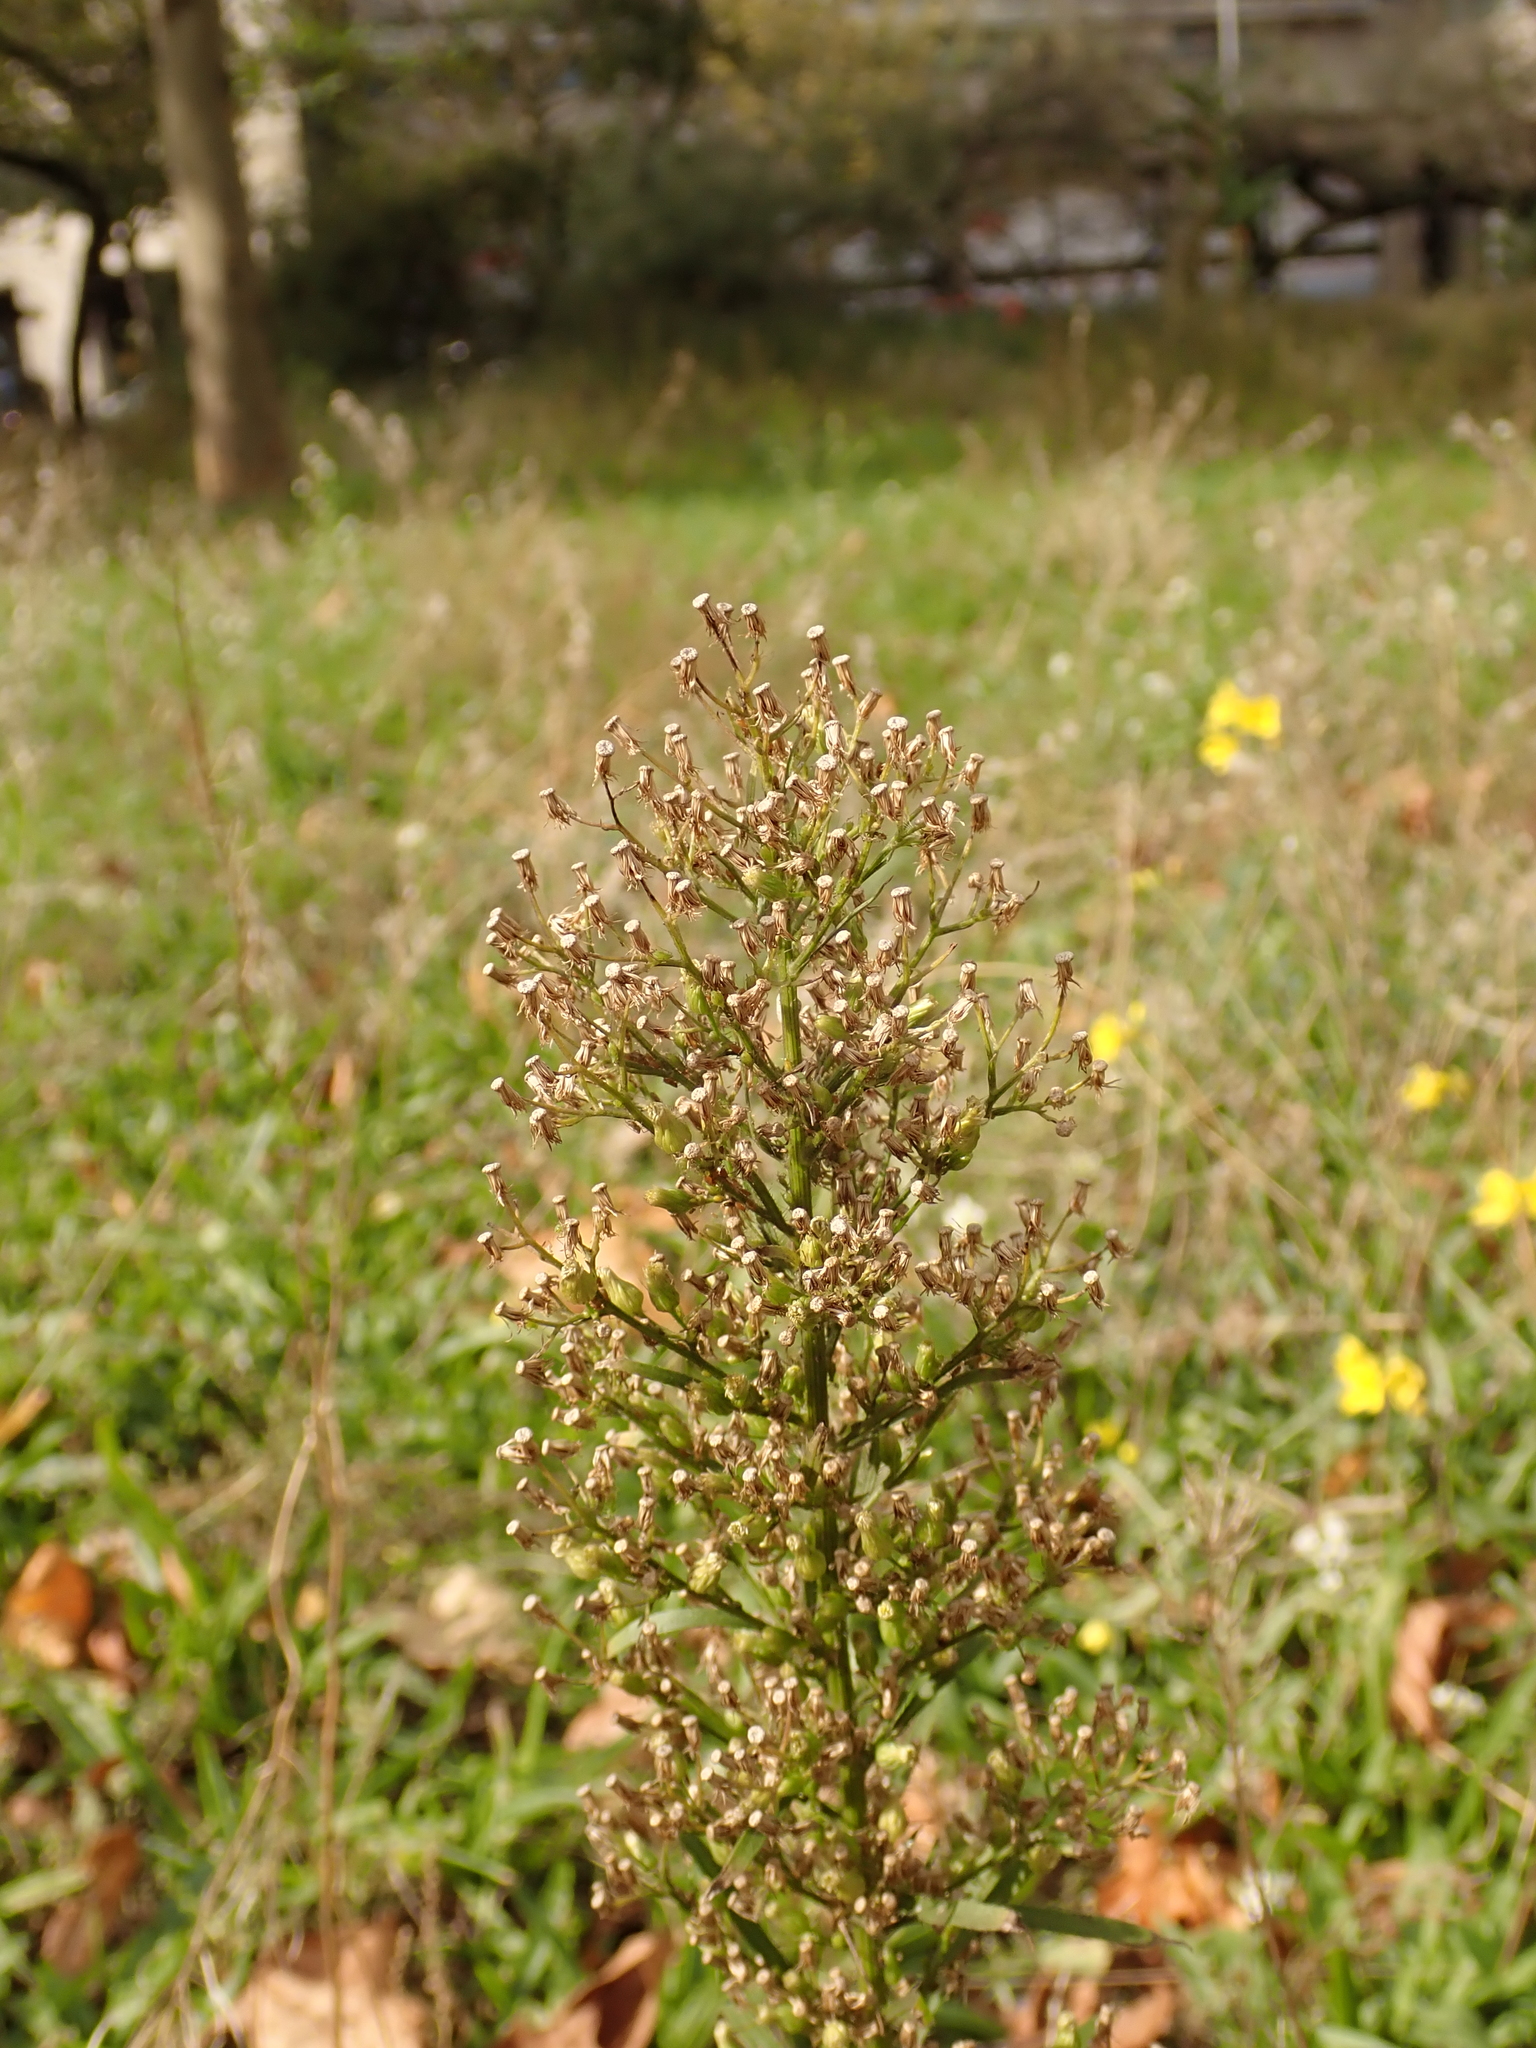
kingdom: Plantae
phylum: Tracheophyta
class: Magnoliopsida
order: Asterales
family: Asteraceae
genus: Erigeron
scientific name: Erigeron canadensis
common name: Canadian fleabane
